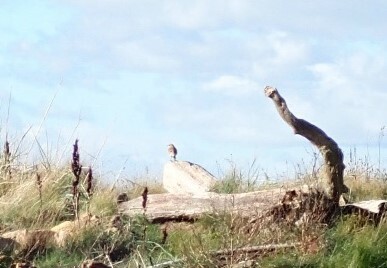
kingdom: Animalia
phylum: Chordata
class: Aves
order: Passeriformes
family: Muscicapidae
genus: Oenanthe
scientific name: Oenanthe oenanthe
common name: Northern wheatear
